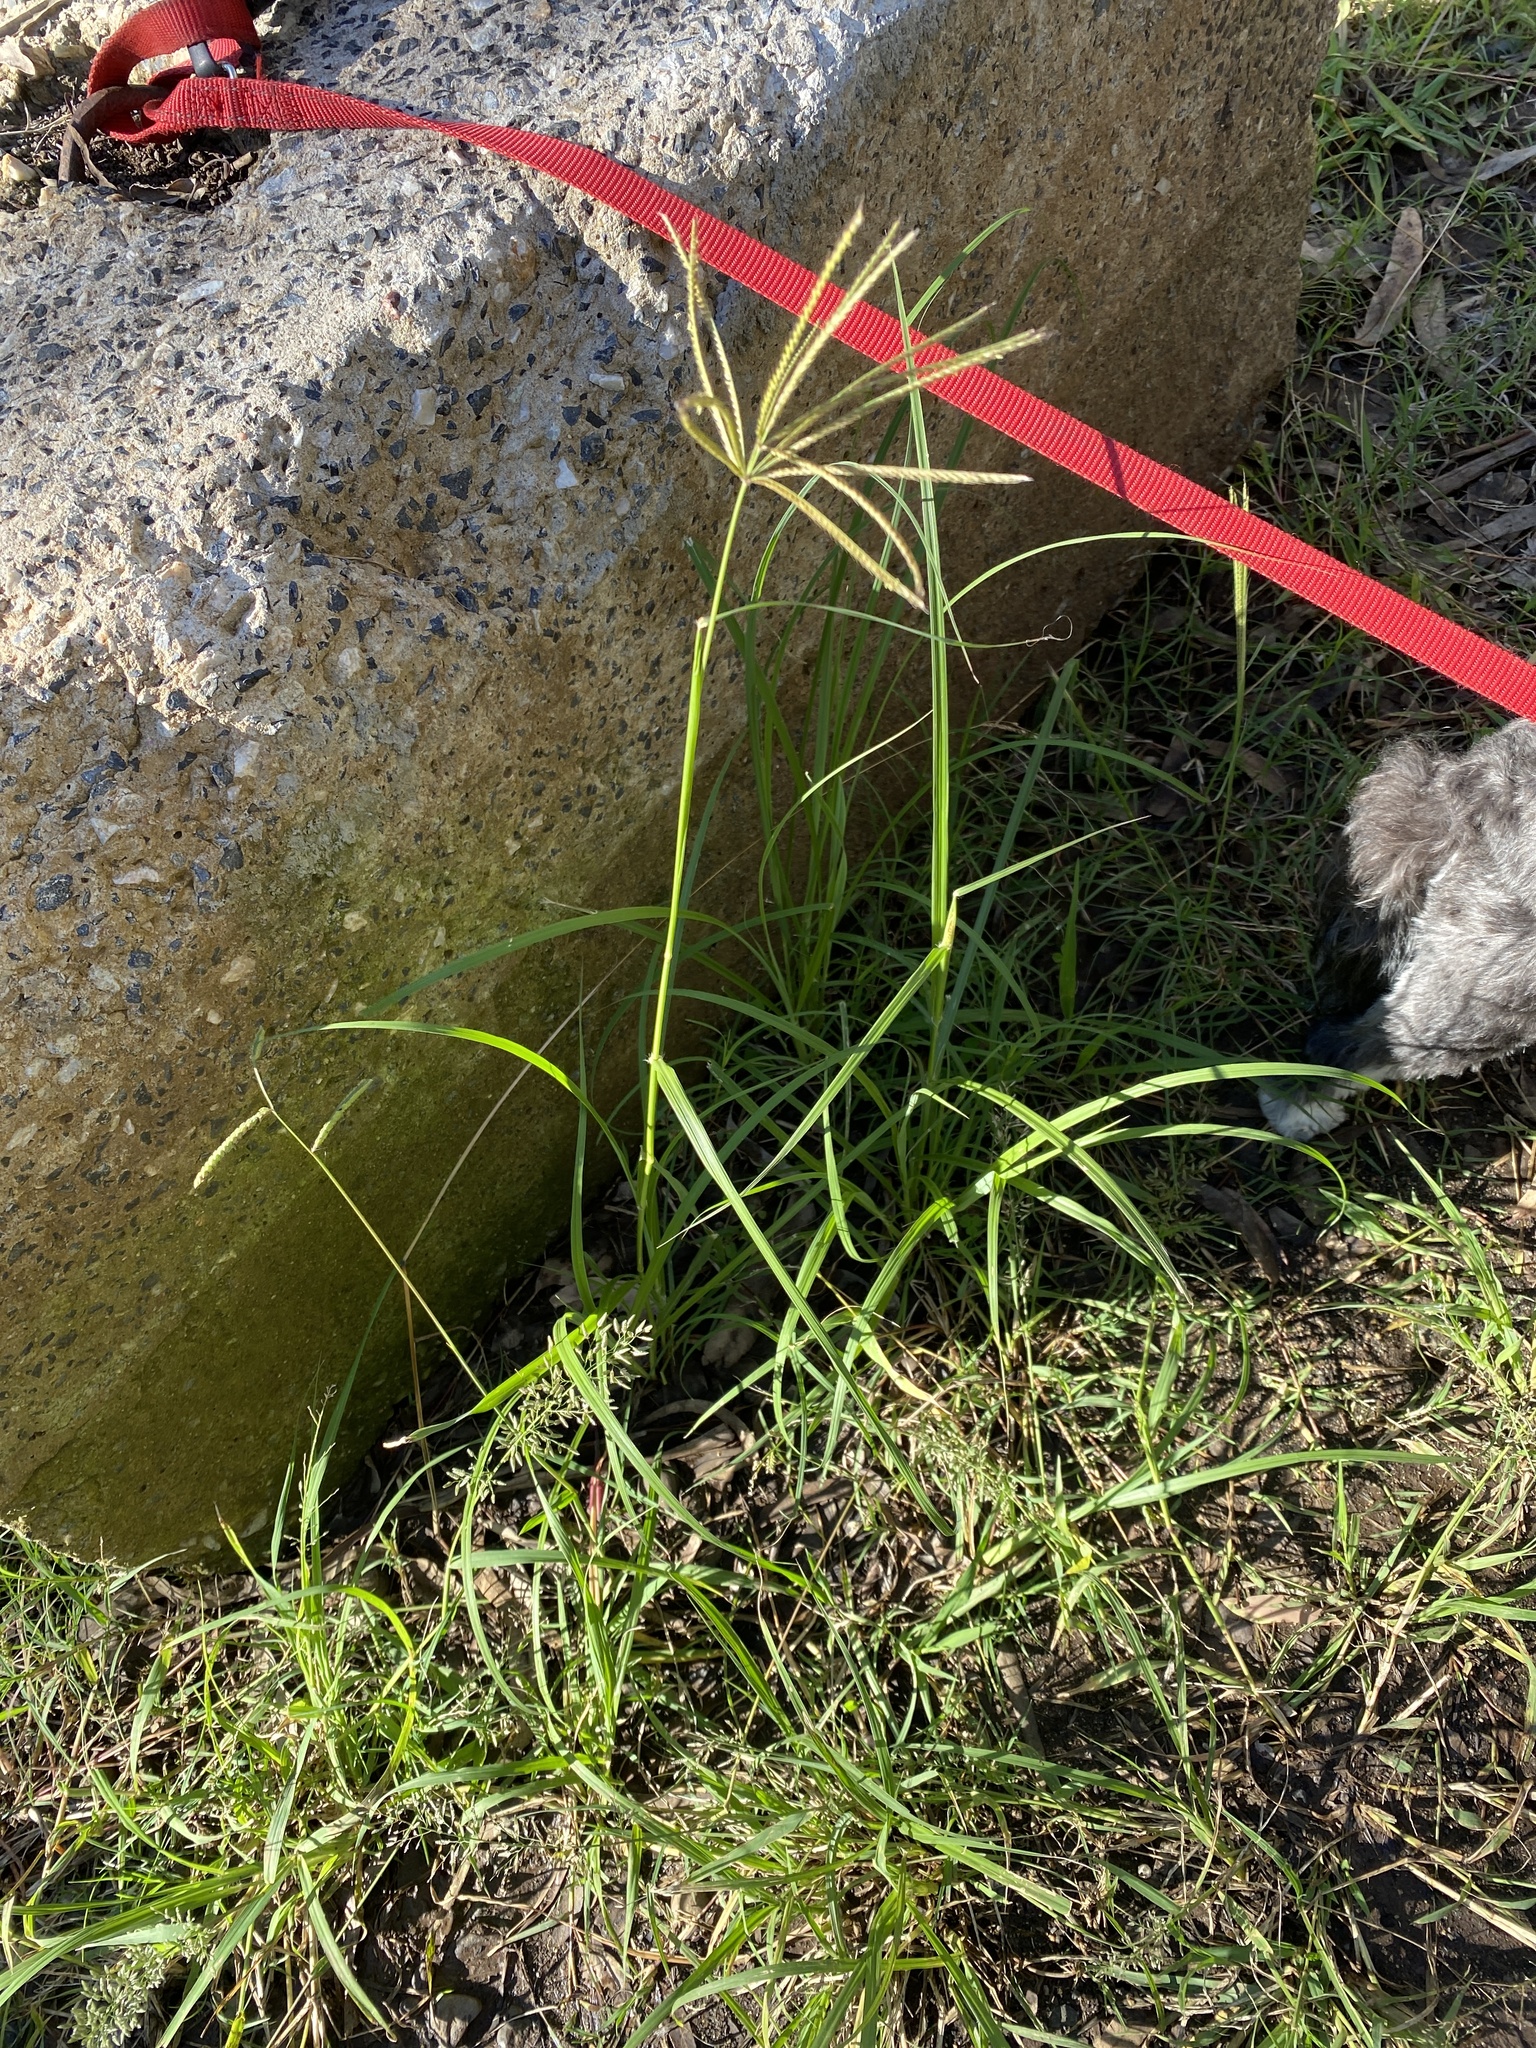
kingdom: Plantae
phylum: Tracheophyta
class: Liliopsida
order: Poales
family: Poaceae
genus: Chloris
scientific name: Chloris gayana
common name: Rhodes grass
